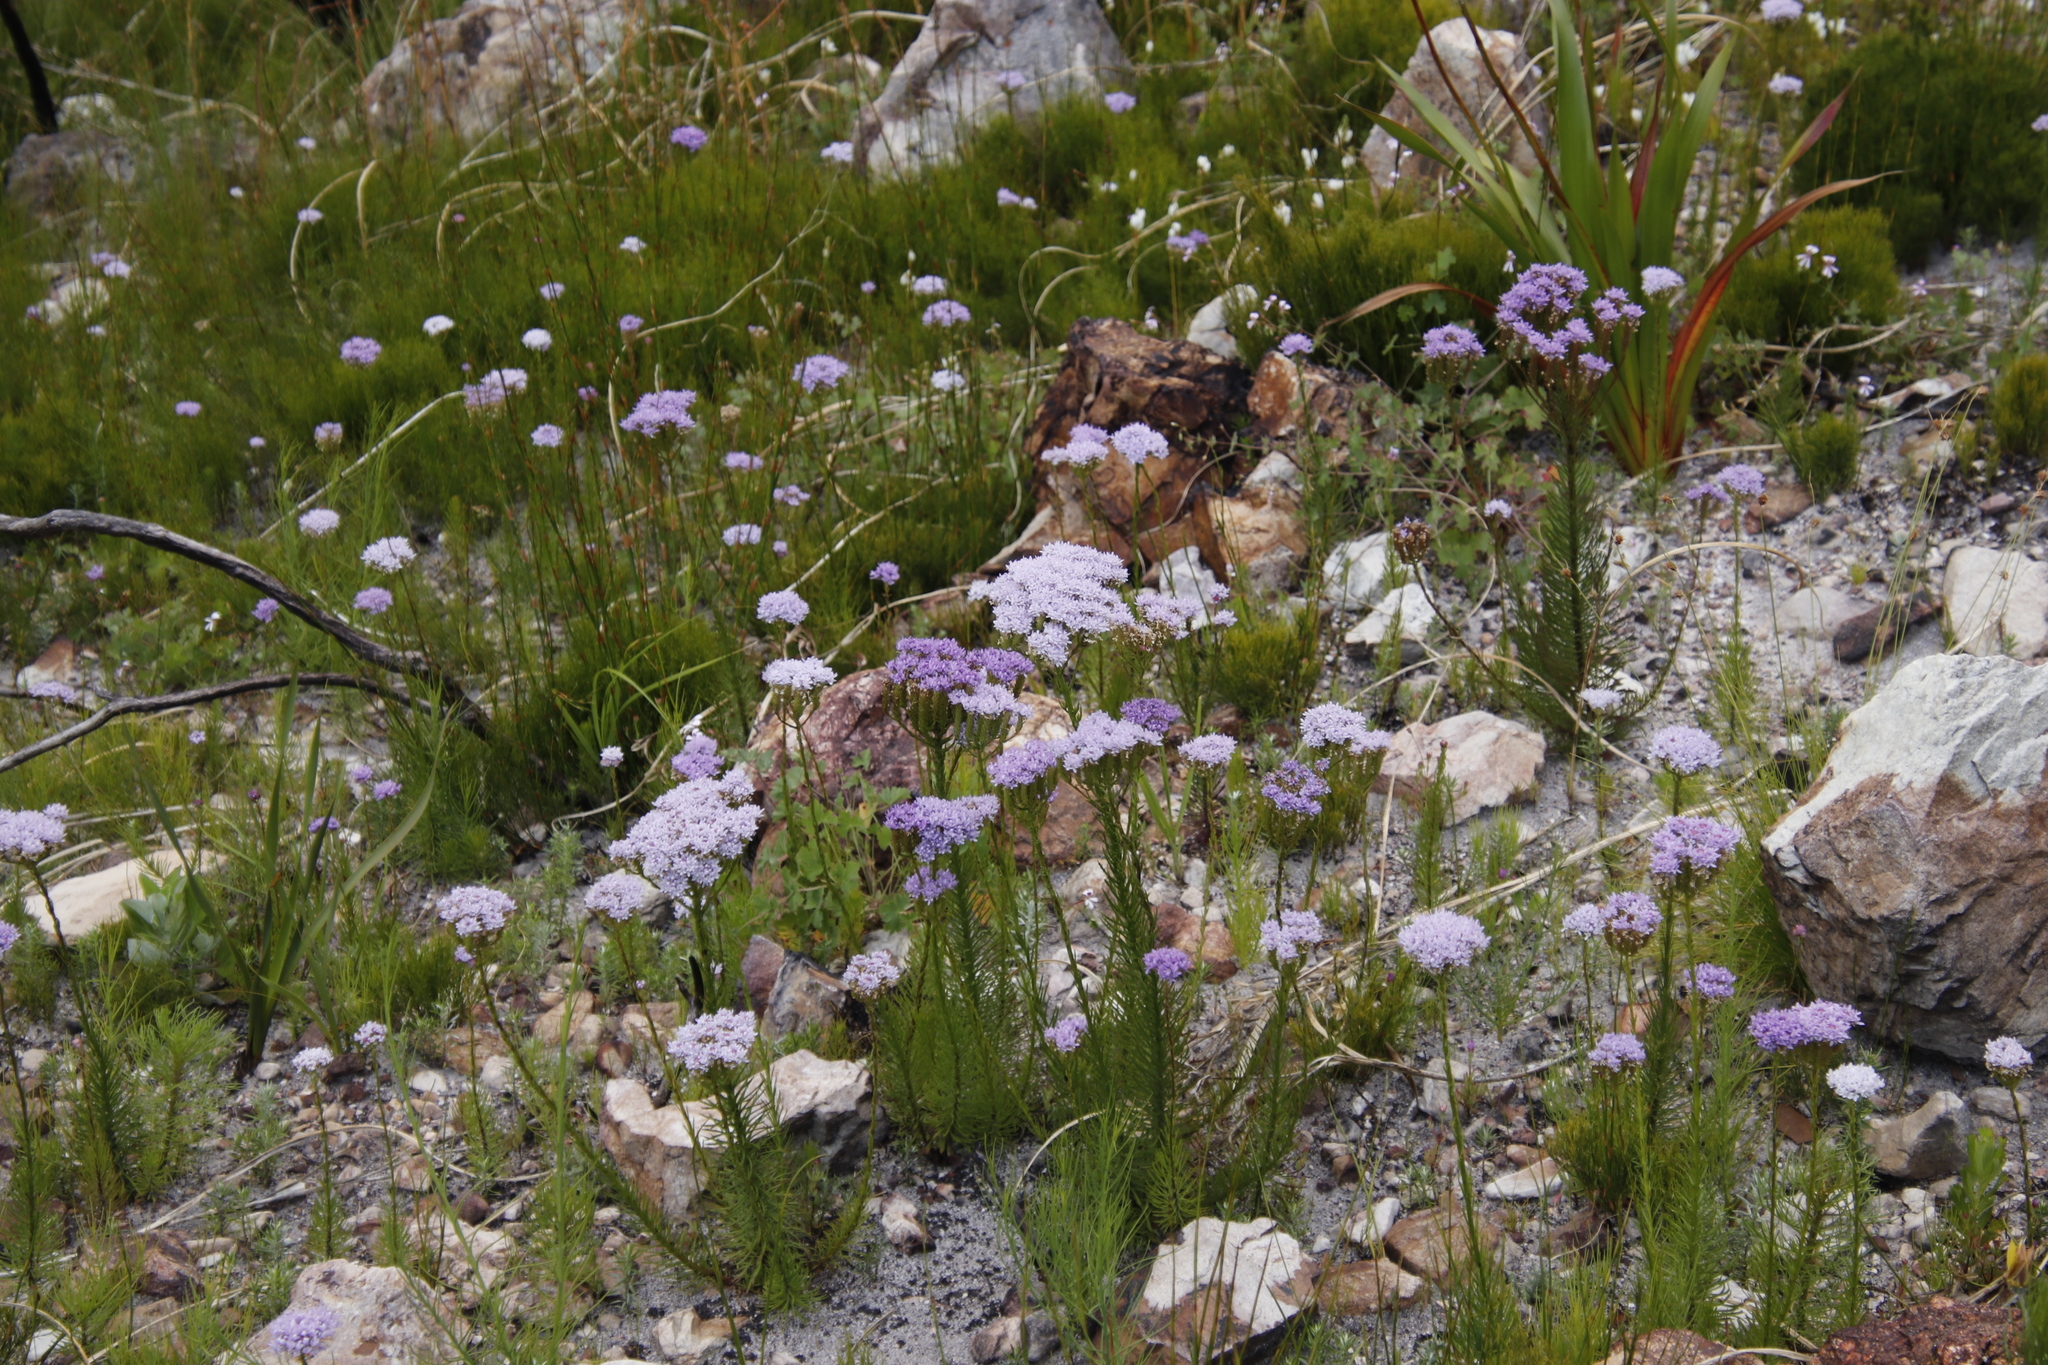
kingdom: Plantae
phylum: Tracheophyta
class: Magnoliopsida
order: Lamiales
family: Scrophulariaceae
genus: Pseudoselago
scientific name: Pseudoselago spuria
